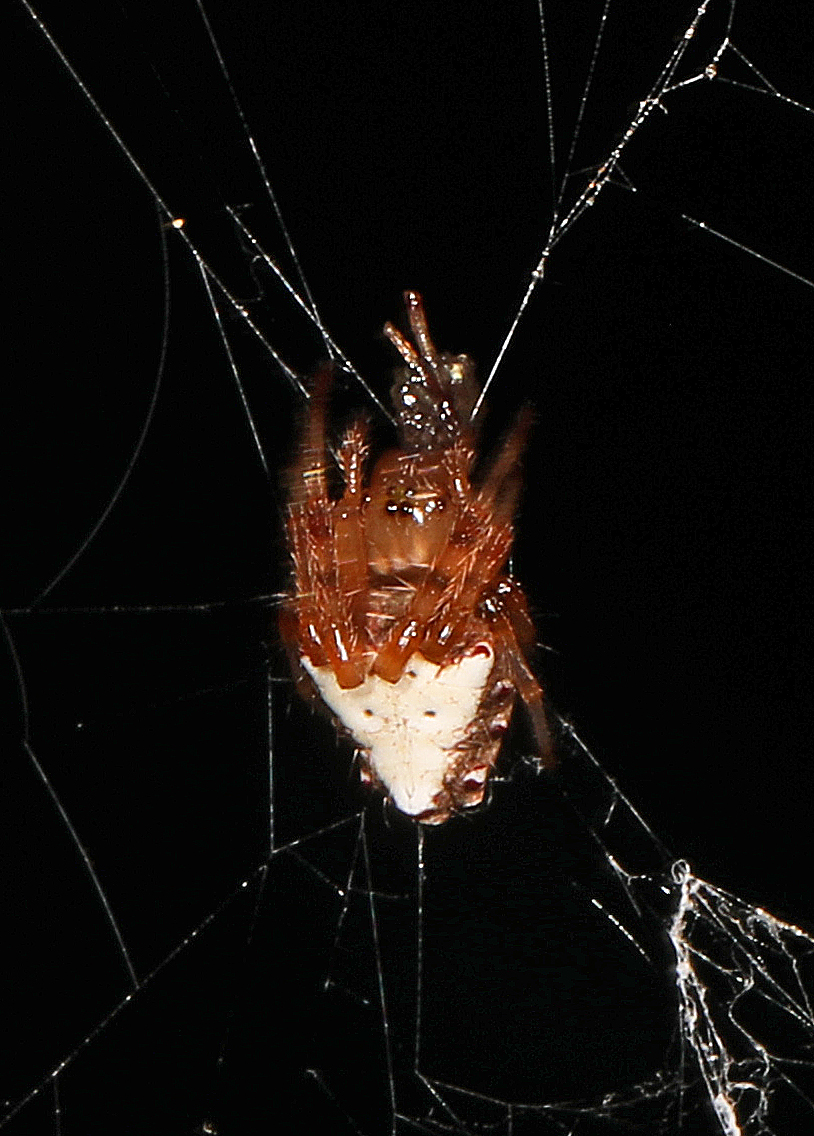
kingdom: Animalia
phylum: Arthropoda
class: Arachnida
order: Araneae
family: Araneidae
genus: Verrucosa
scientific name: Verrucosa arenata
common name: Orb weavers
